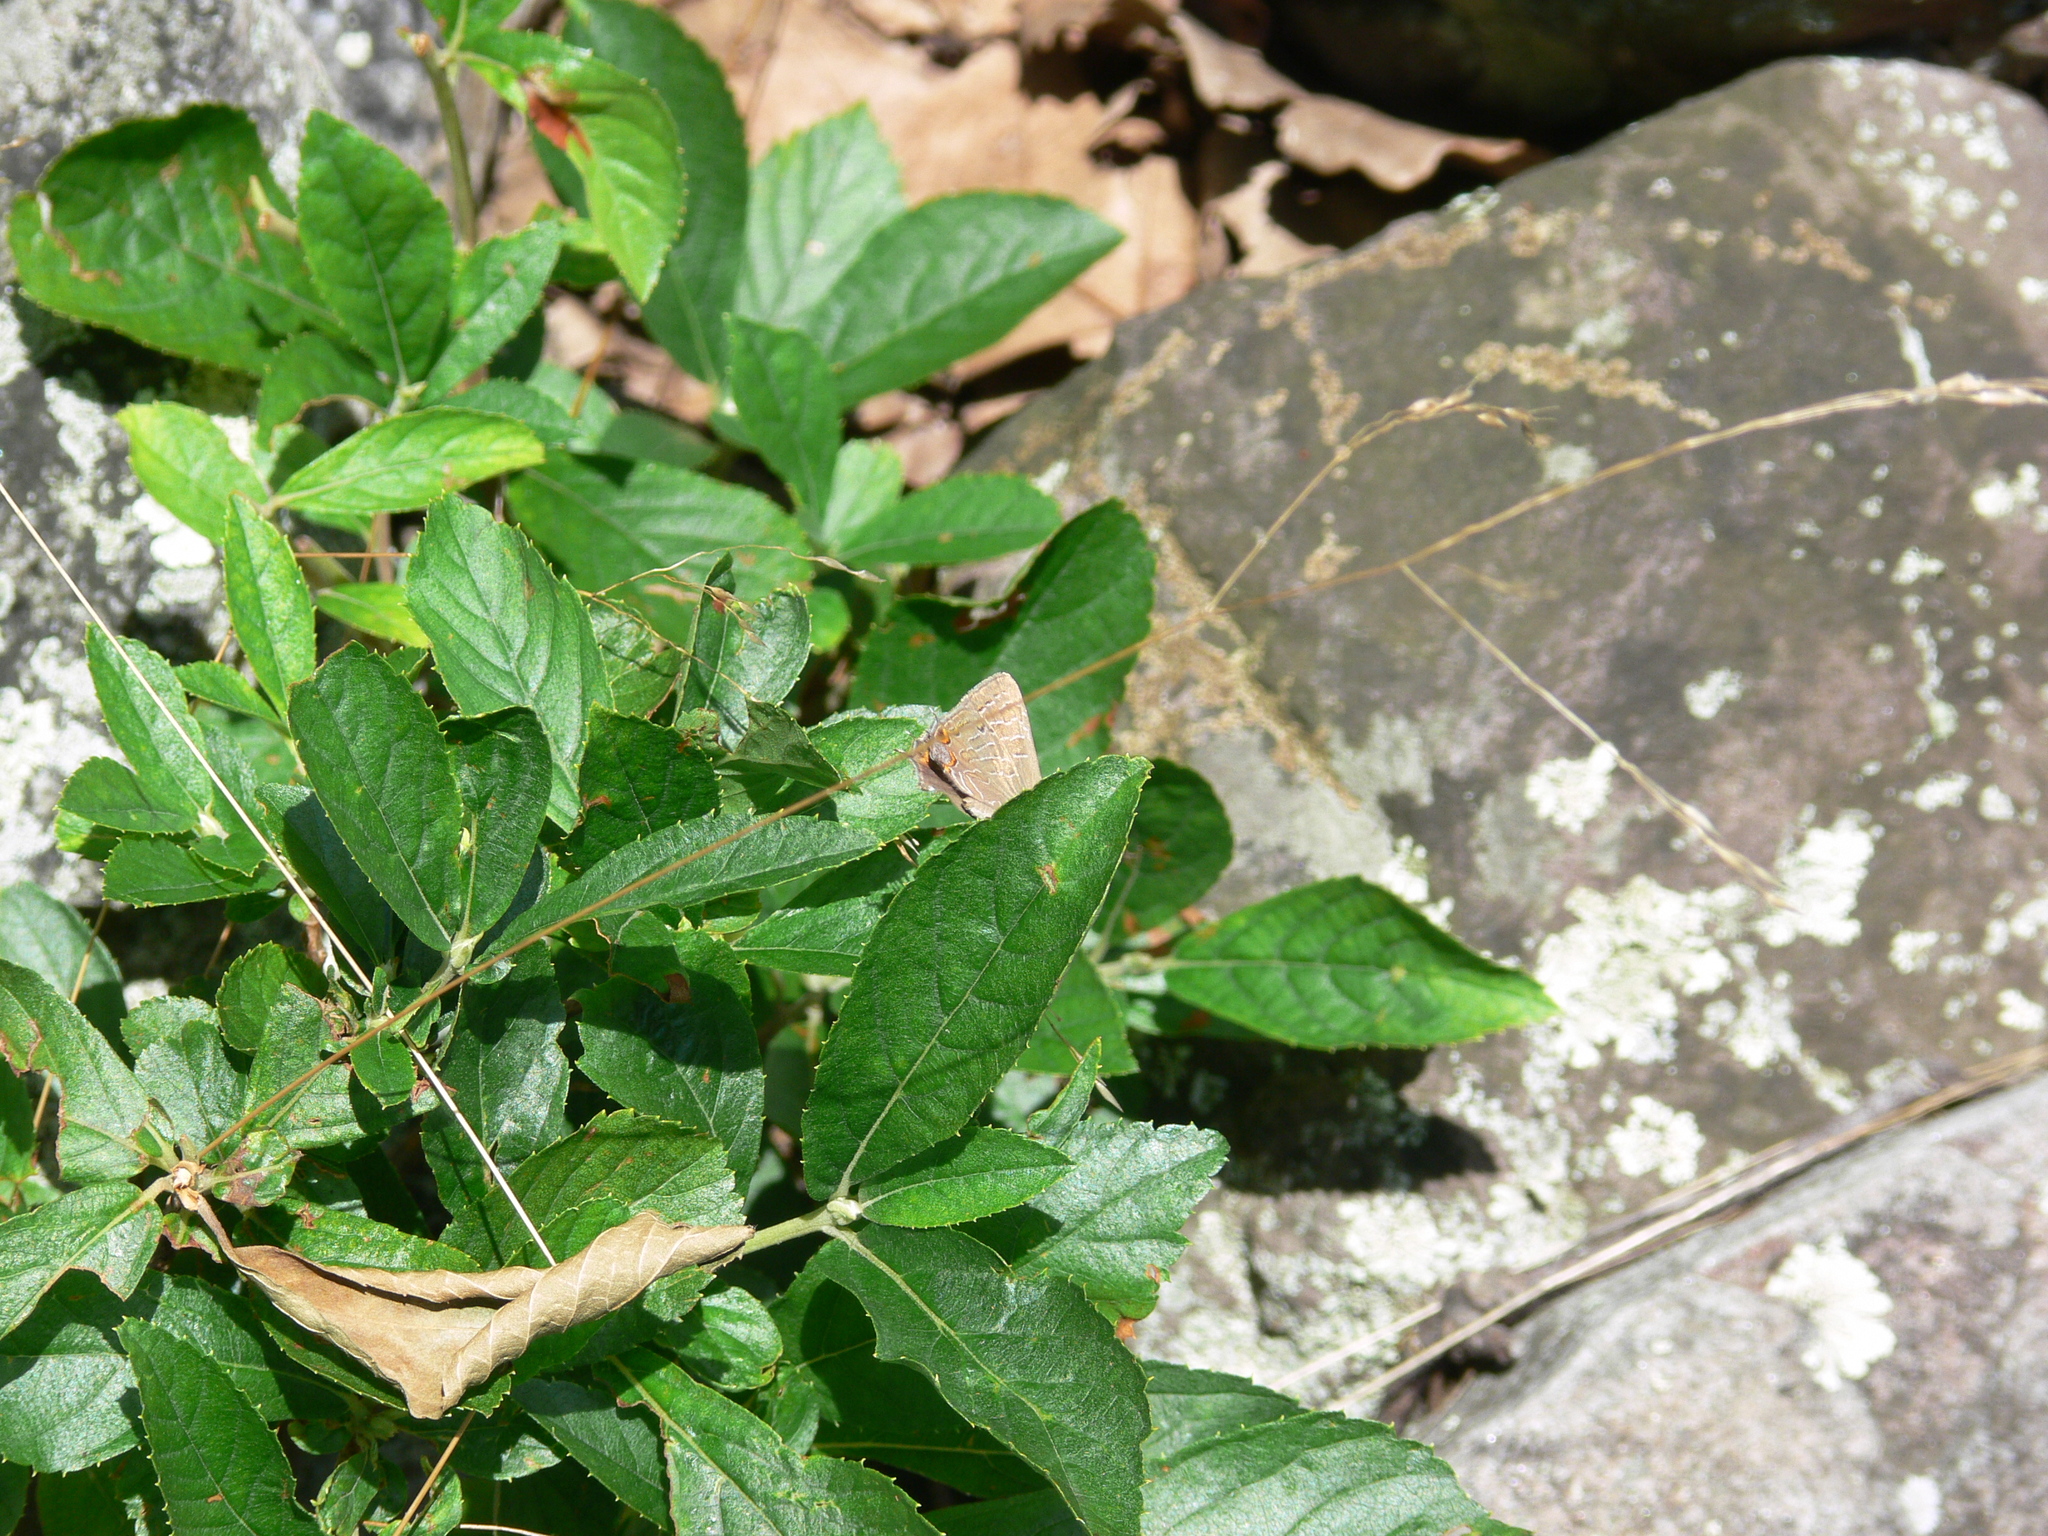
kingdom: Animalia
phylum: Arthropoda
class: Insecta
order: Lepidoptera
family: Lycaenidae
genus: Satyrium
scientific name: Satyrium liparops
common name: Striped hairstreak
